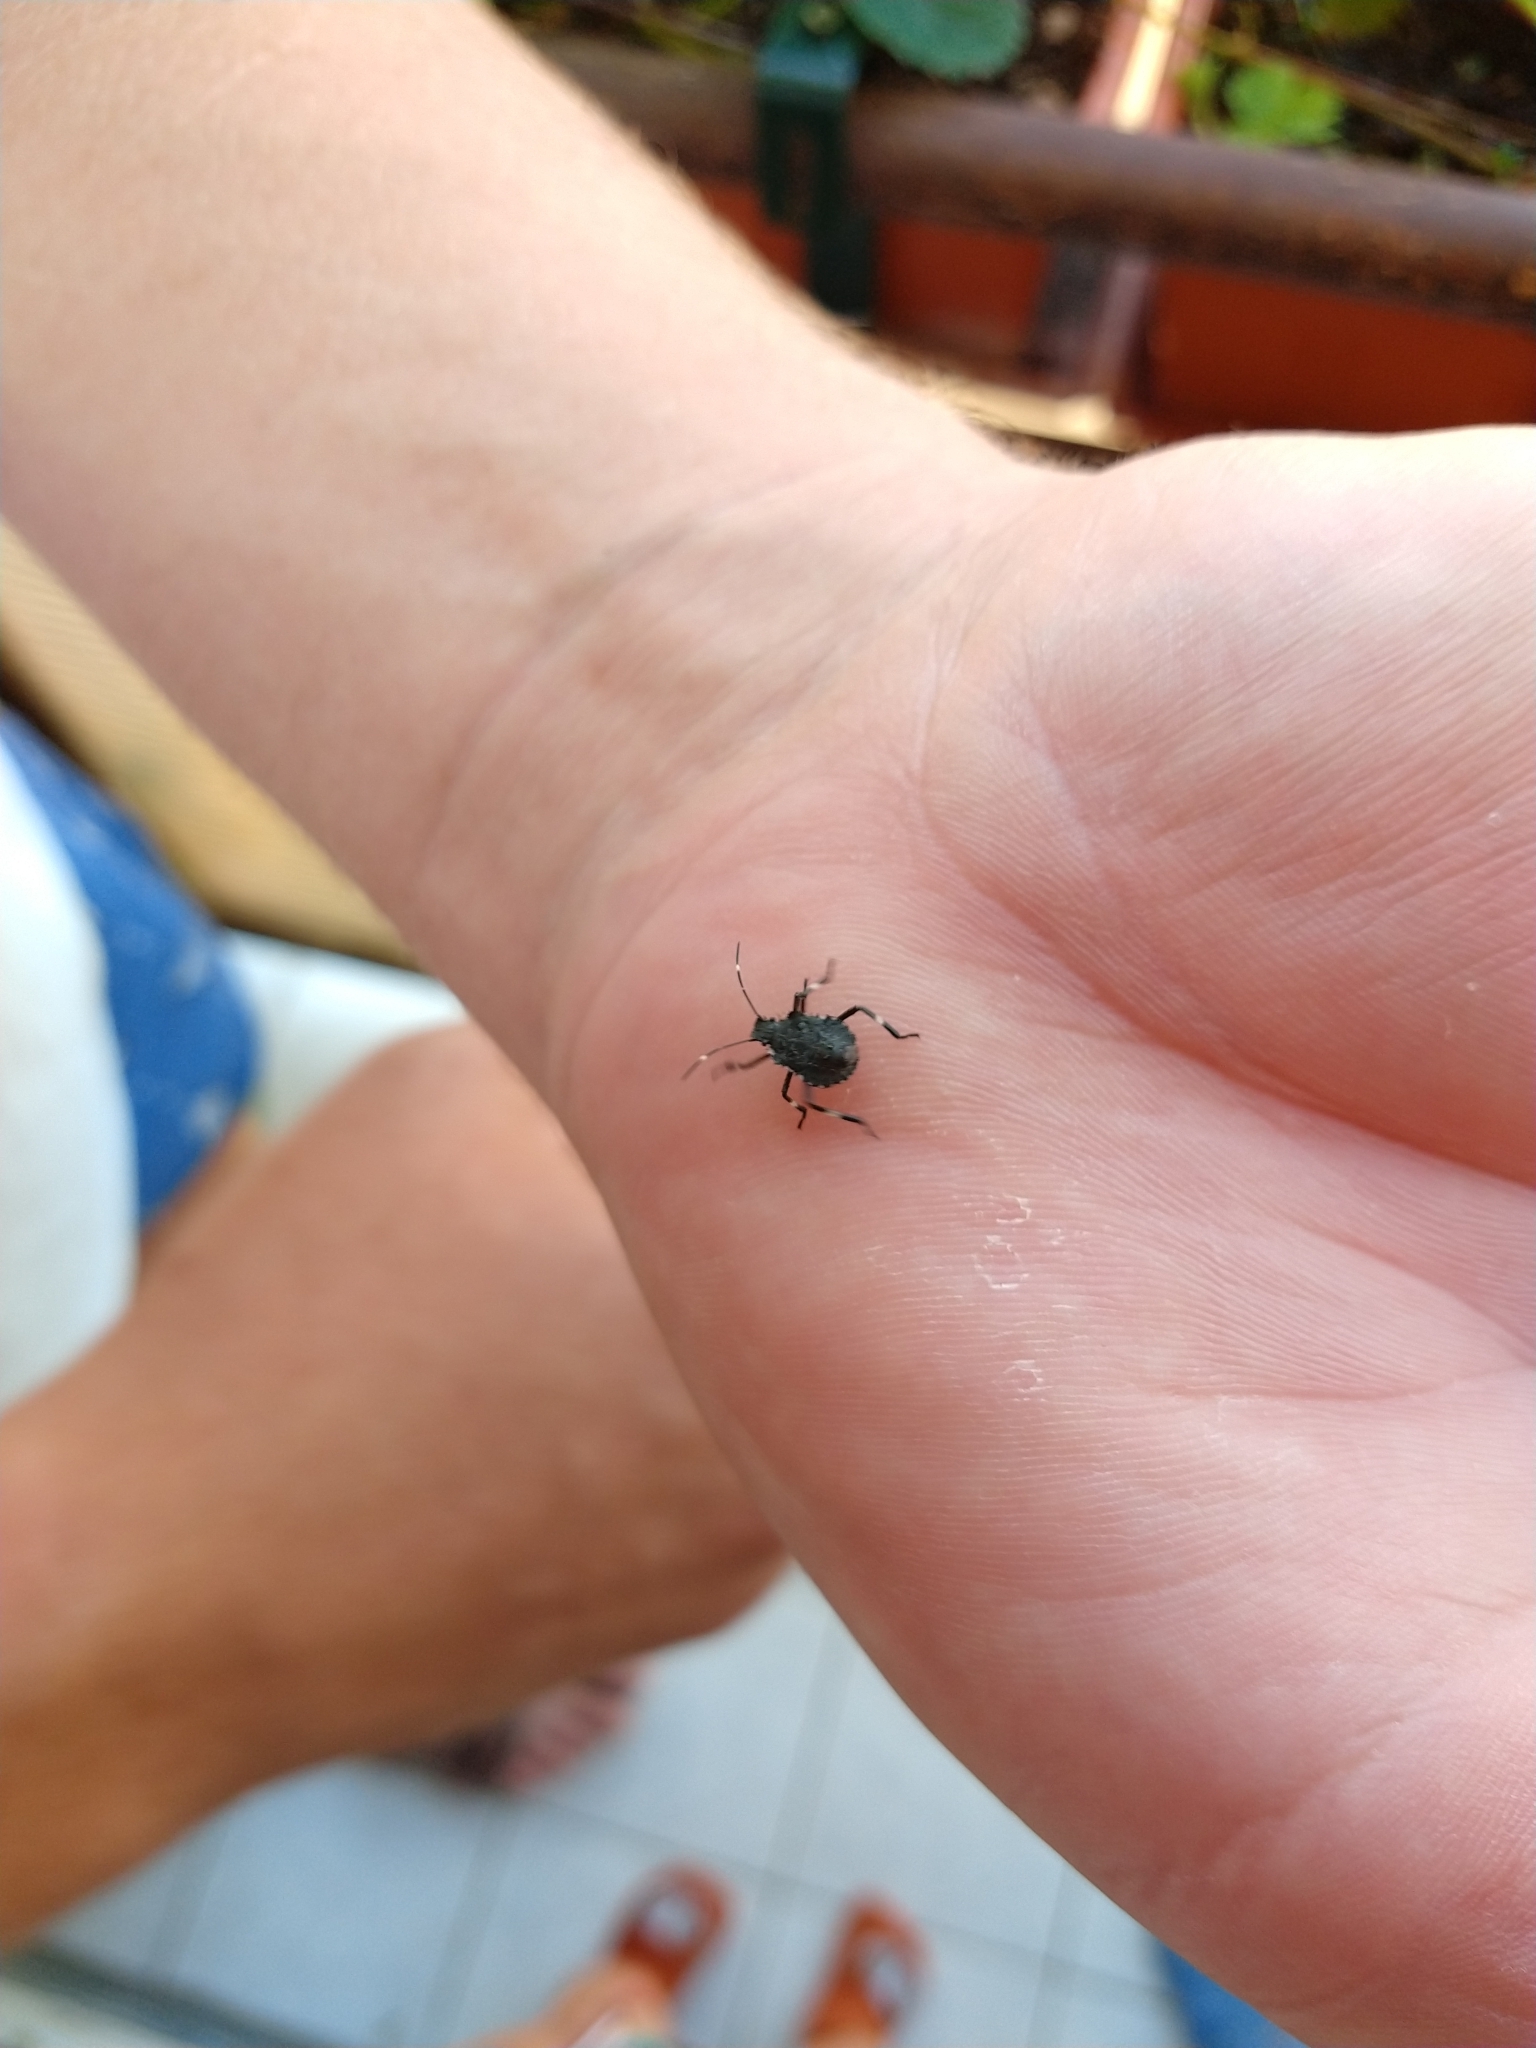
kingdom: Animalia
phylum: Arthropoda
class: Insecta
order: Hemiptera
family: Pentatomidae
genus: Halyomorpha
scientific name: Halyomorpha halys
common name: Brown marmorated stink bug
